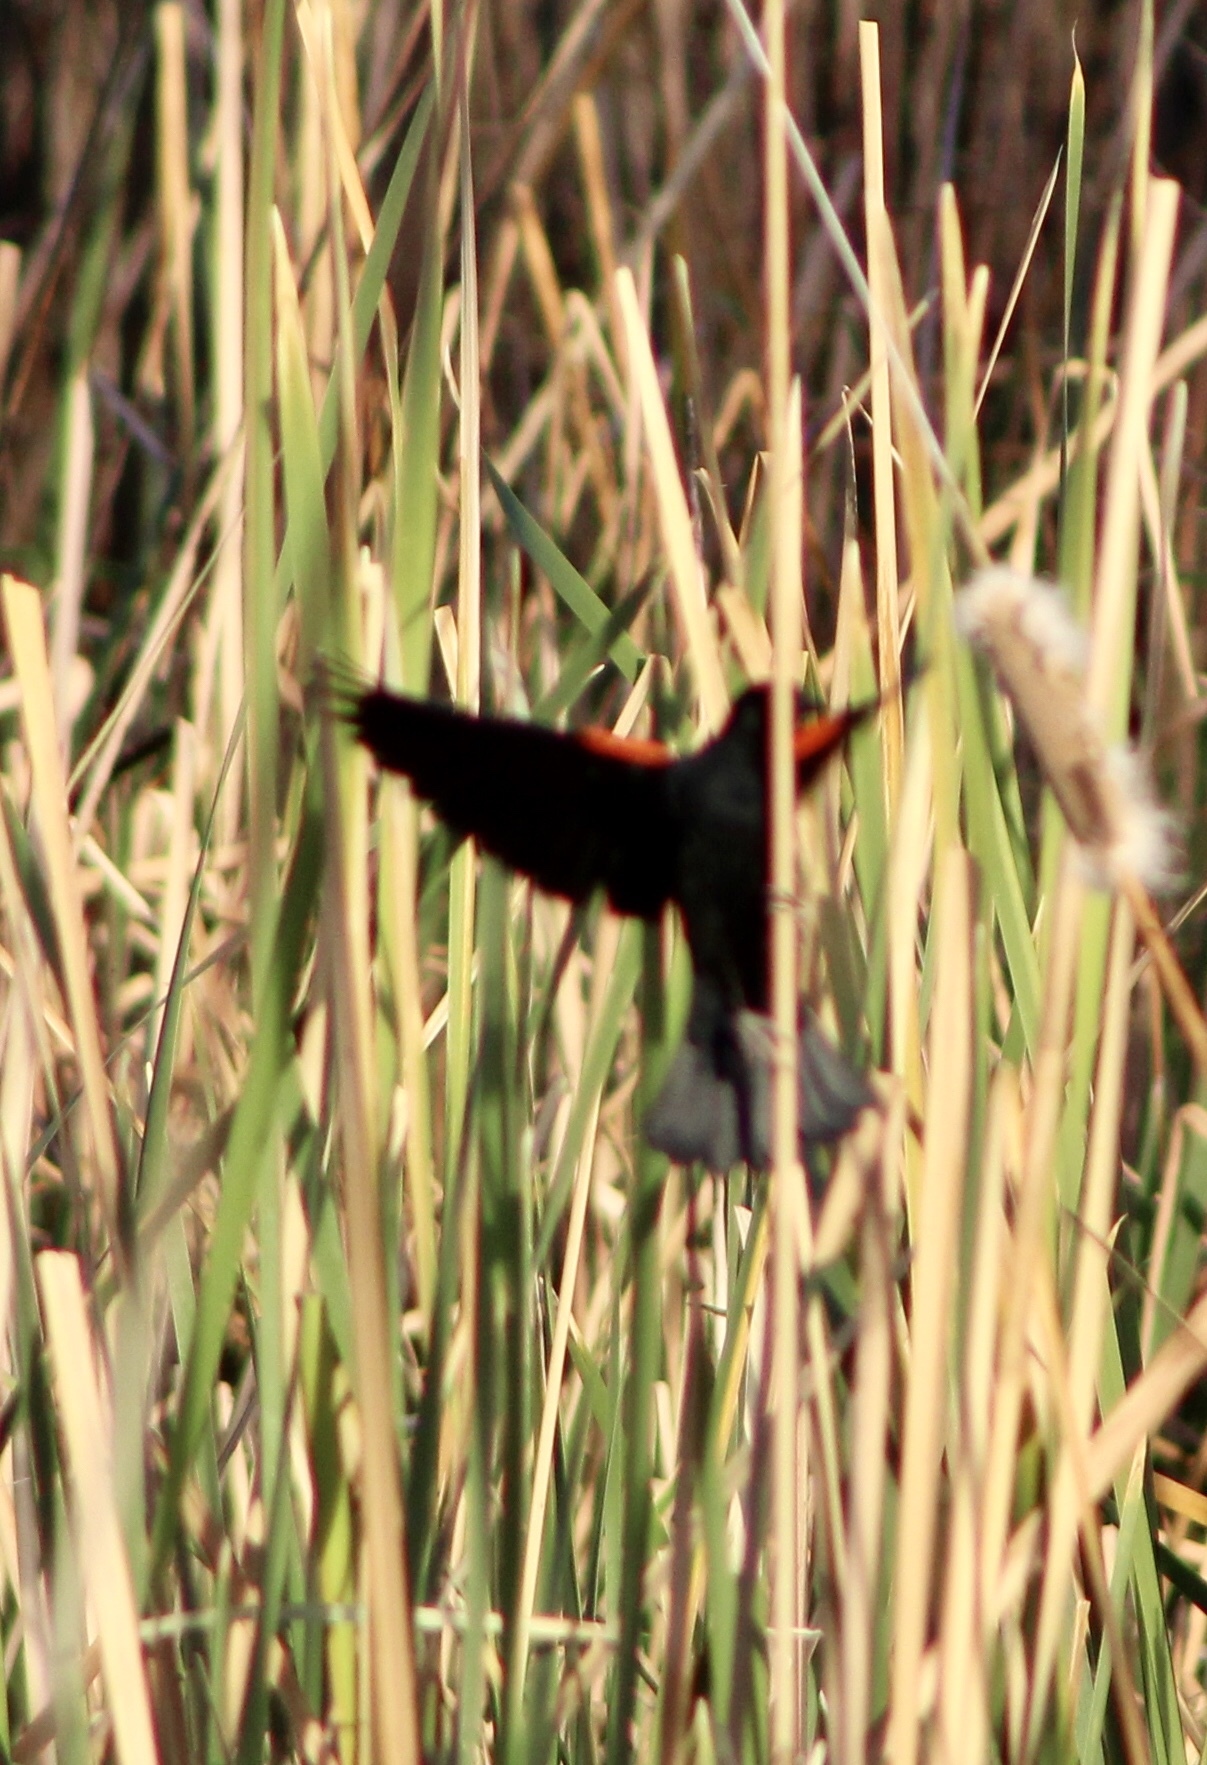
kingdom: Animalia
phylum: Chordata
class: Aves
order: Passeriformes
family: Icteridae
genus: Agelaius
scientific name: Agelaius phoeniceus
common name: Red-winged blackbird
